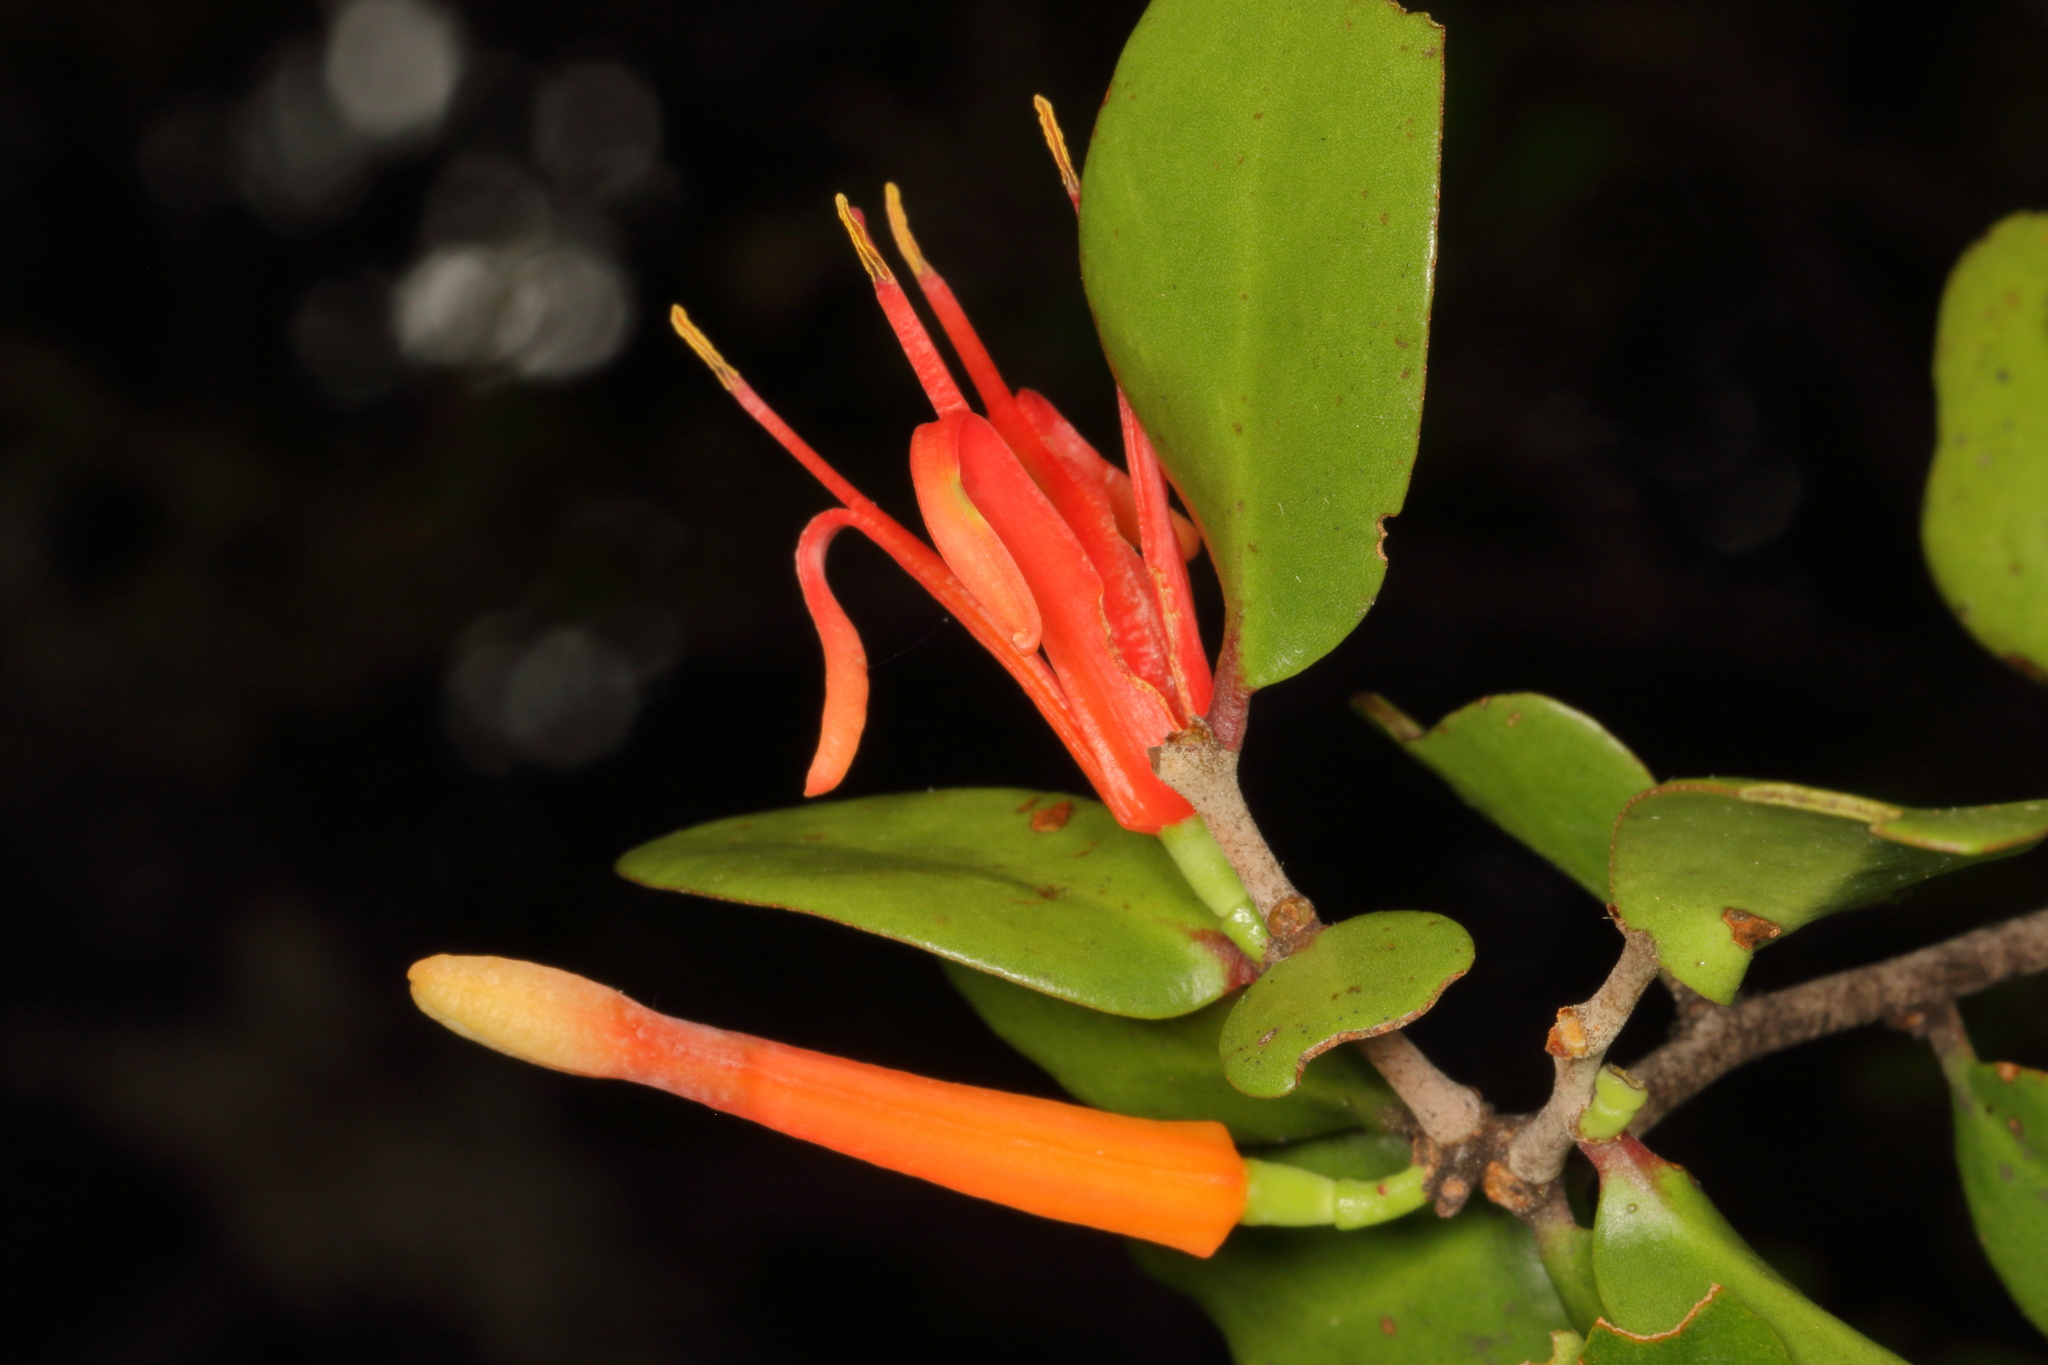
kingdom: Plantae
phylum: Tracheophyta
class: Magnoliopsida
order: Santalales
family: Loranthaceae
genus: Peraxilla
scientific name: Peraxilla tetrapetala
